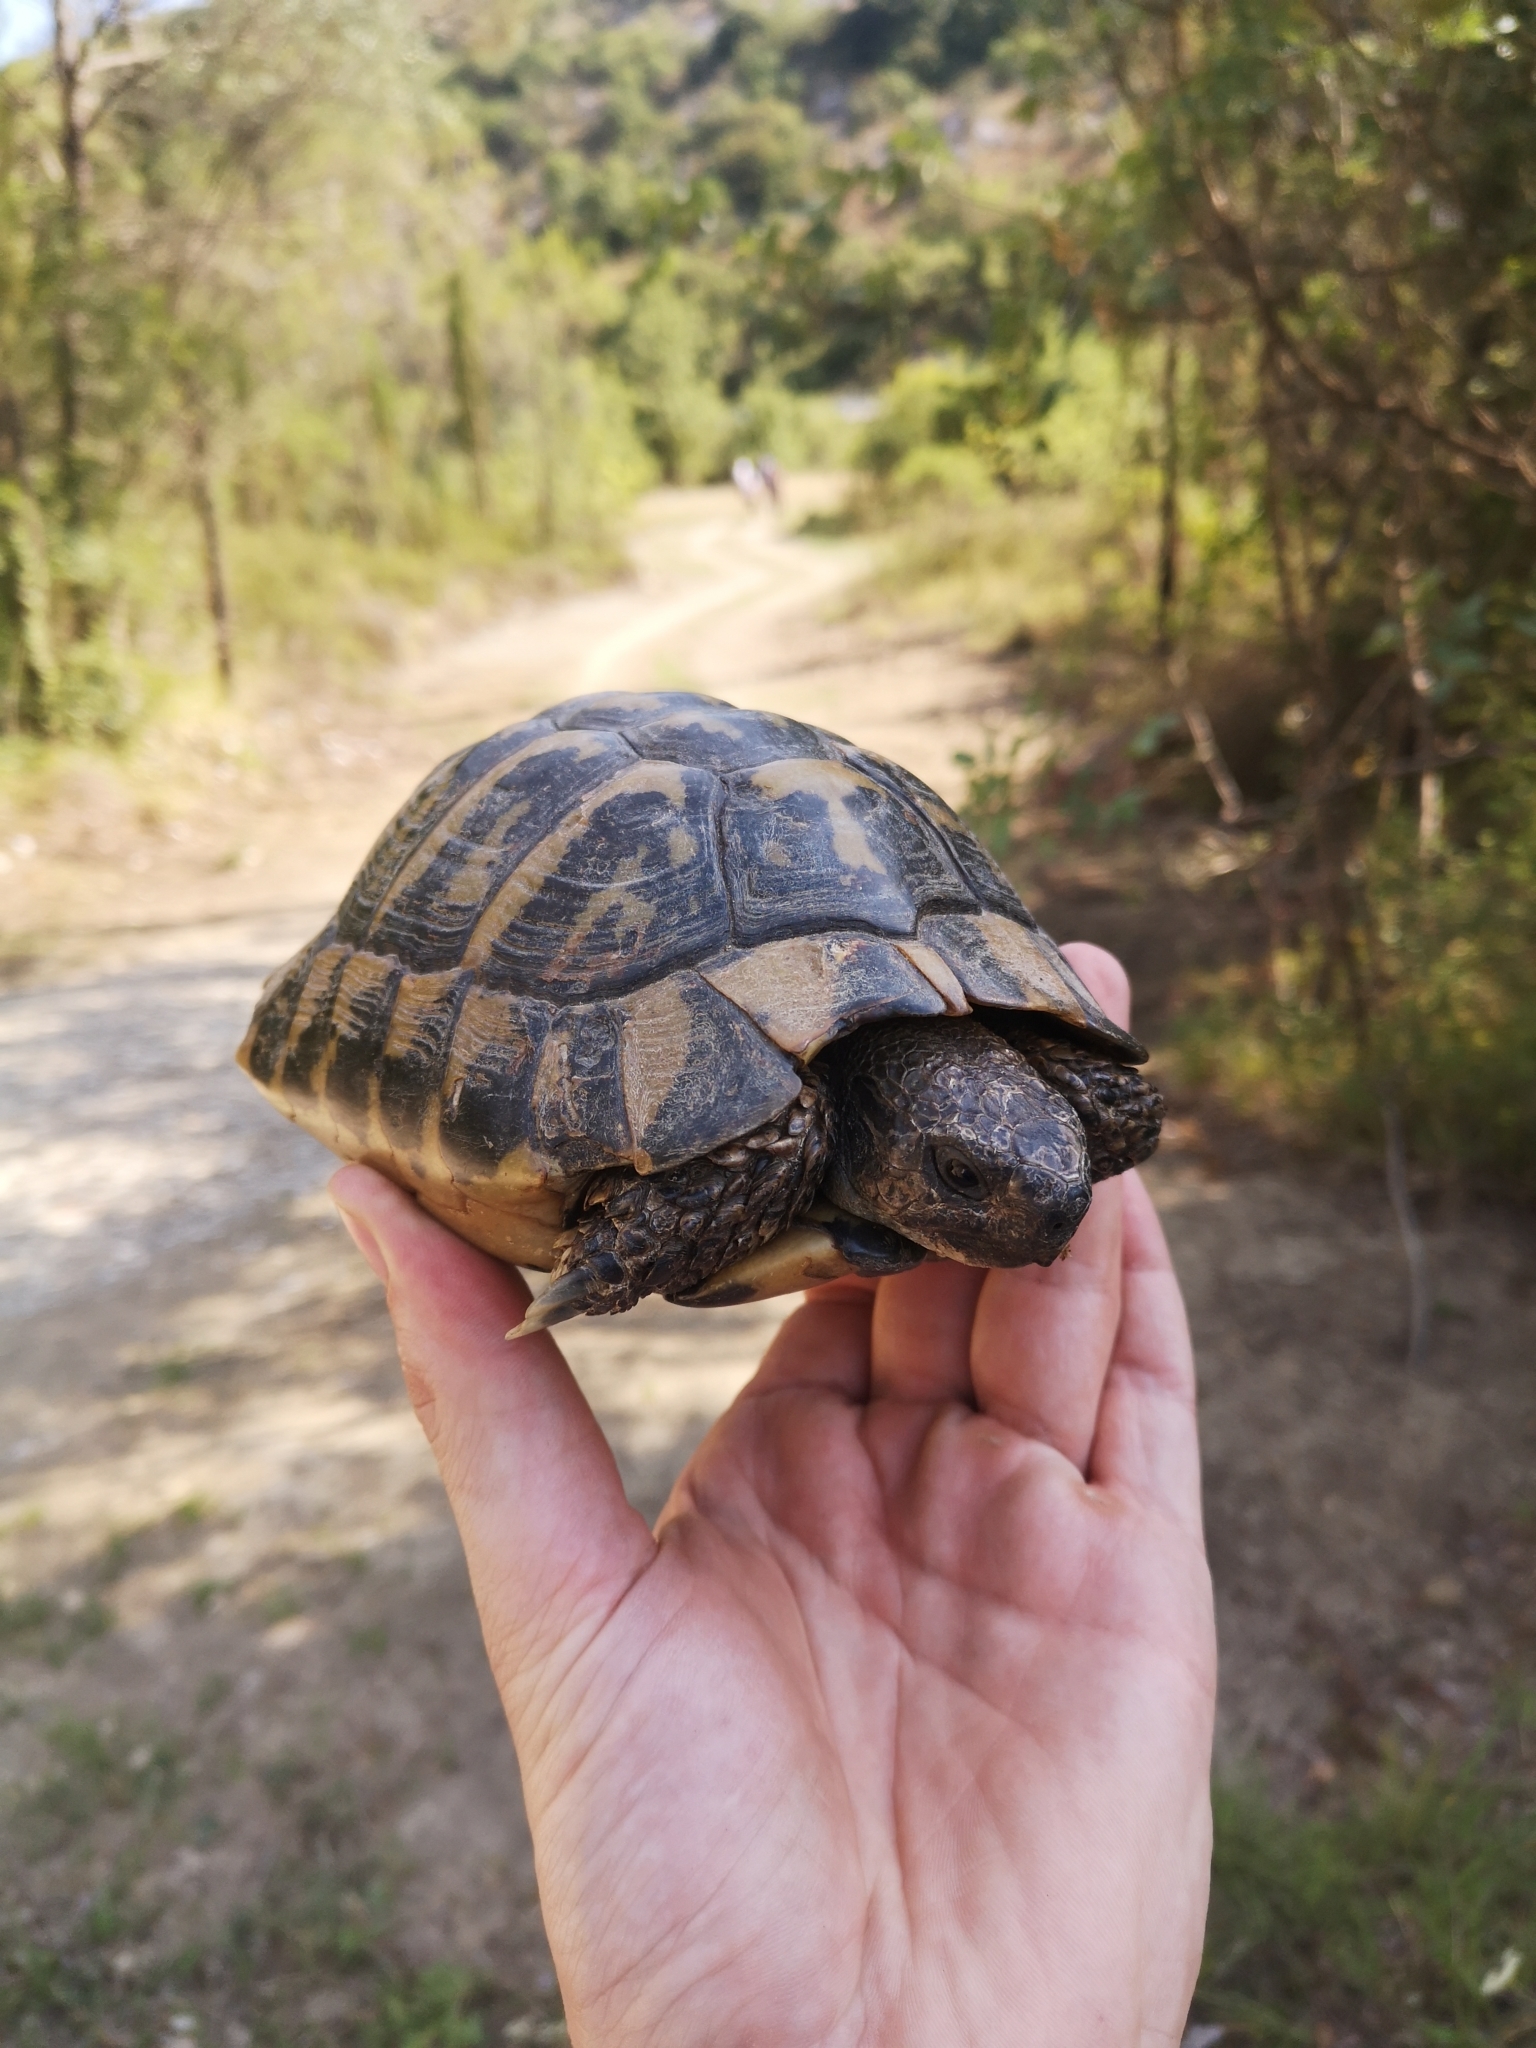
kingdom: Animalia
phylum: Chordata
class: Testudines
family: Testudinidae
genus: Testudo
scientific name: Testudo hermanni
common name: Hermann's tortoise
